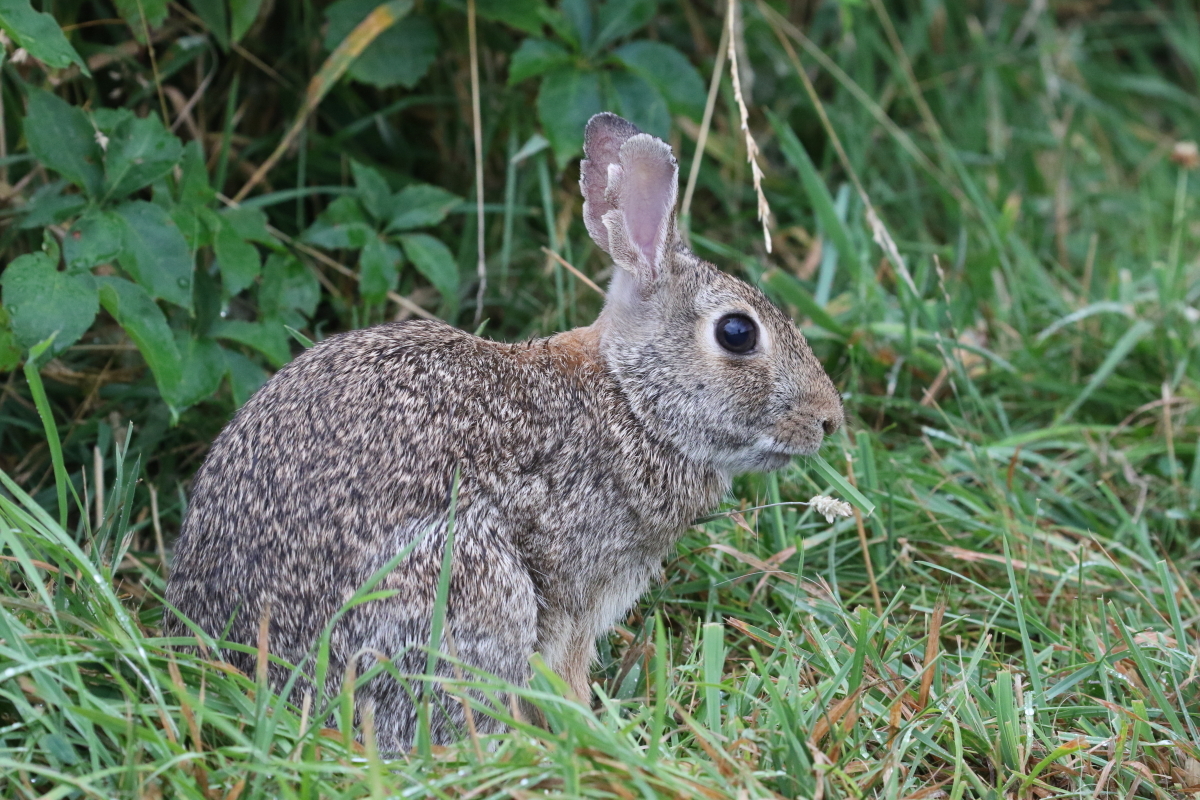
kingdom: Animalia
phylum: Chordata
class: Mammalia
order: Lagomorpha
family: Leporidae
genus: Sylvilagus
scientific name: Sylvilagus floridanus
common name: Eastern cottontail
